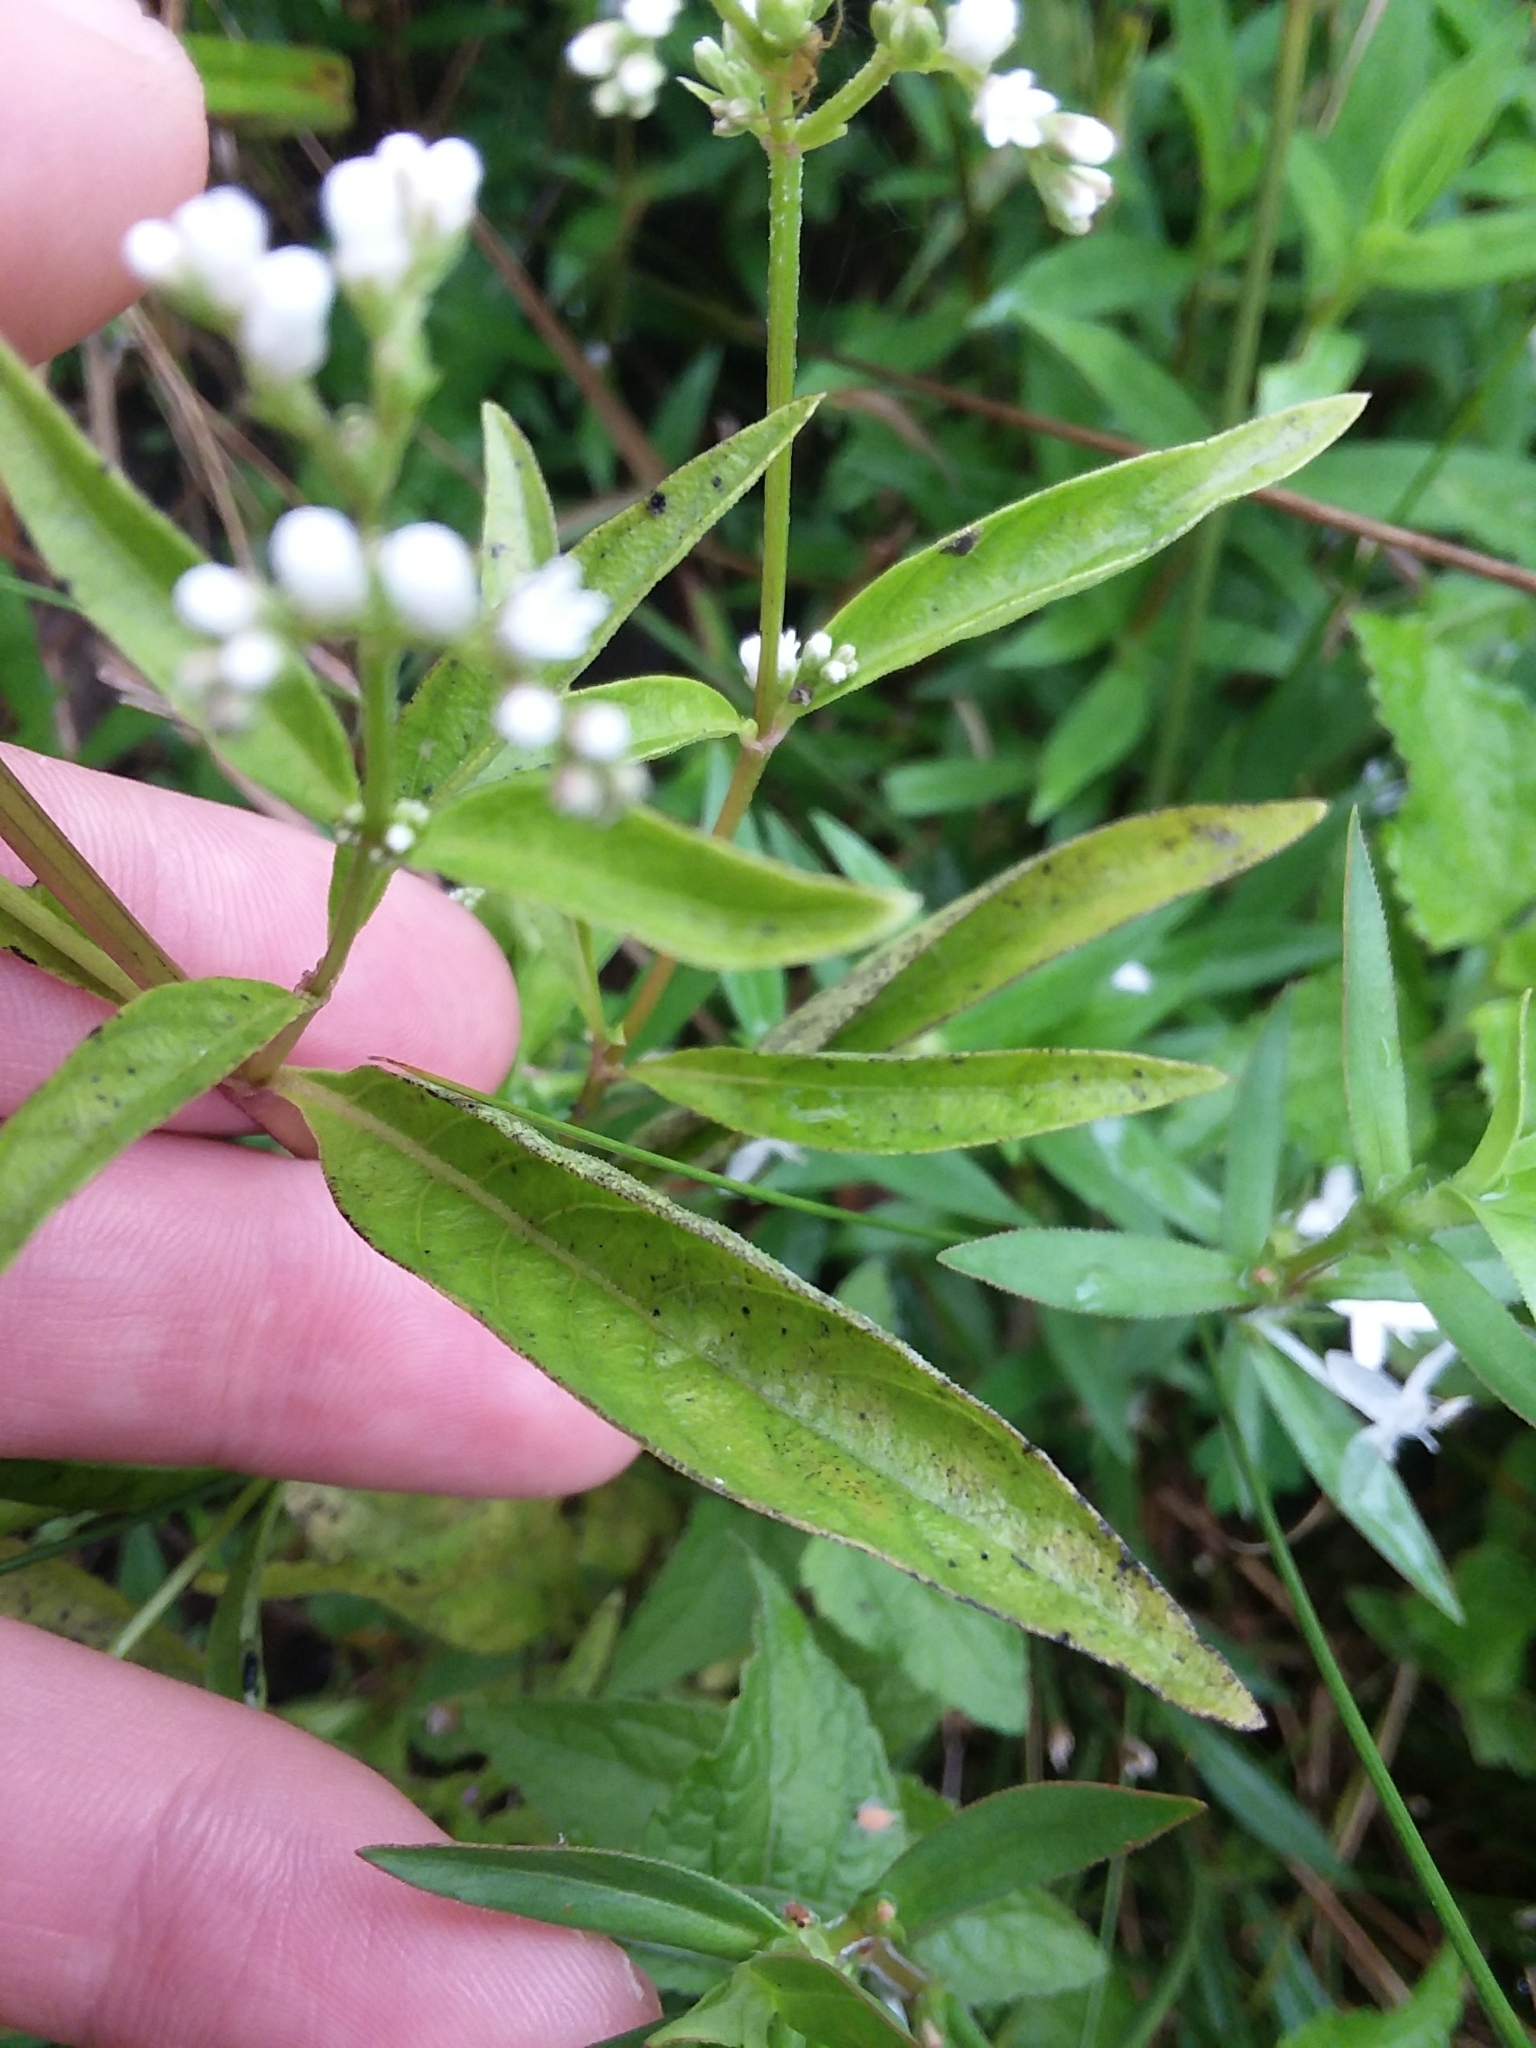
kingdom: Plantae
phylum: Tracheophyta
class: Magnoliopsida
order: Gentianales
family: Loganiaceae
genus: Mitreola
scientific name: Mitreola petiolata
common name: Lax hornpod
